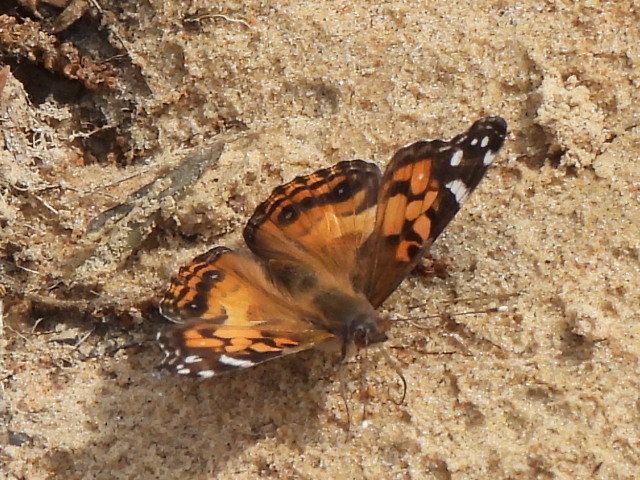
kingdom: Animalia
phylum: Arthropoda
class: Insecta
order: Lepidoptera
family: Nymphalidae
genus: Vanessa
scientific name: Vanessa virginiensis
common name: American lady
